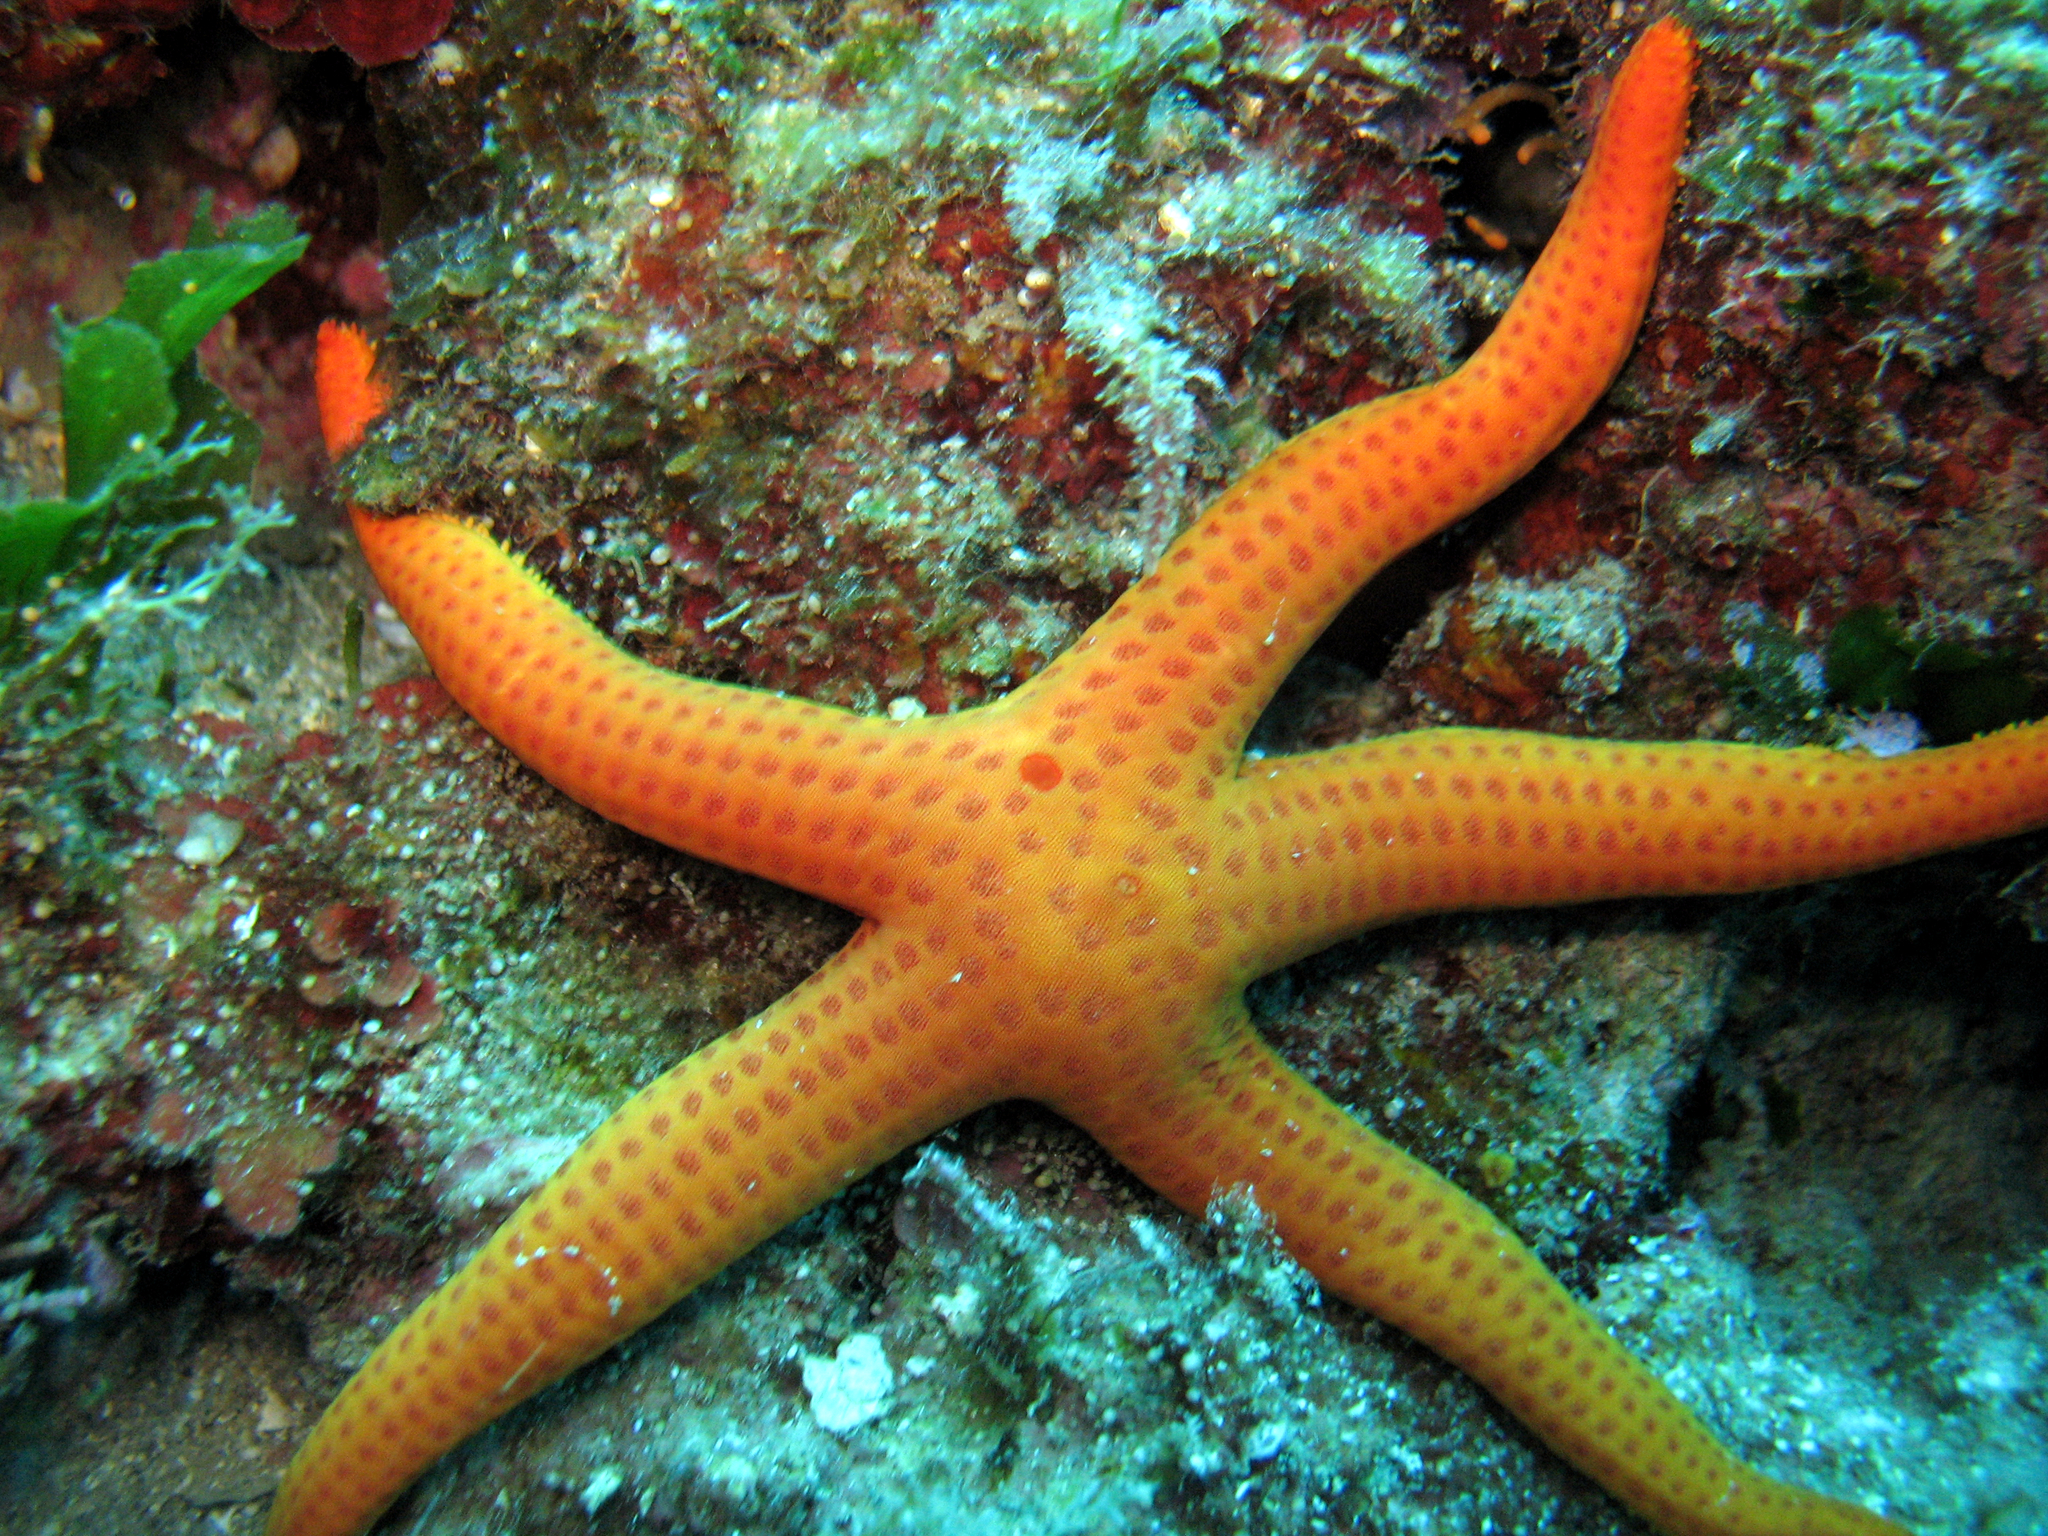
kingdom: Animalia
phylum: Echinodermata
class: Asteroidea
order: Valvatida
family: Ophidiasteridae
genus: Hacelia
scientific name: Hacelia attenuata
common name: Smooth starfish
